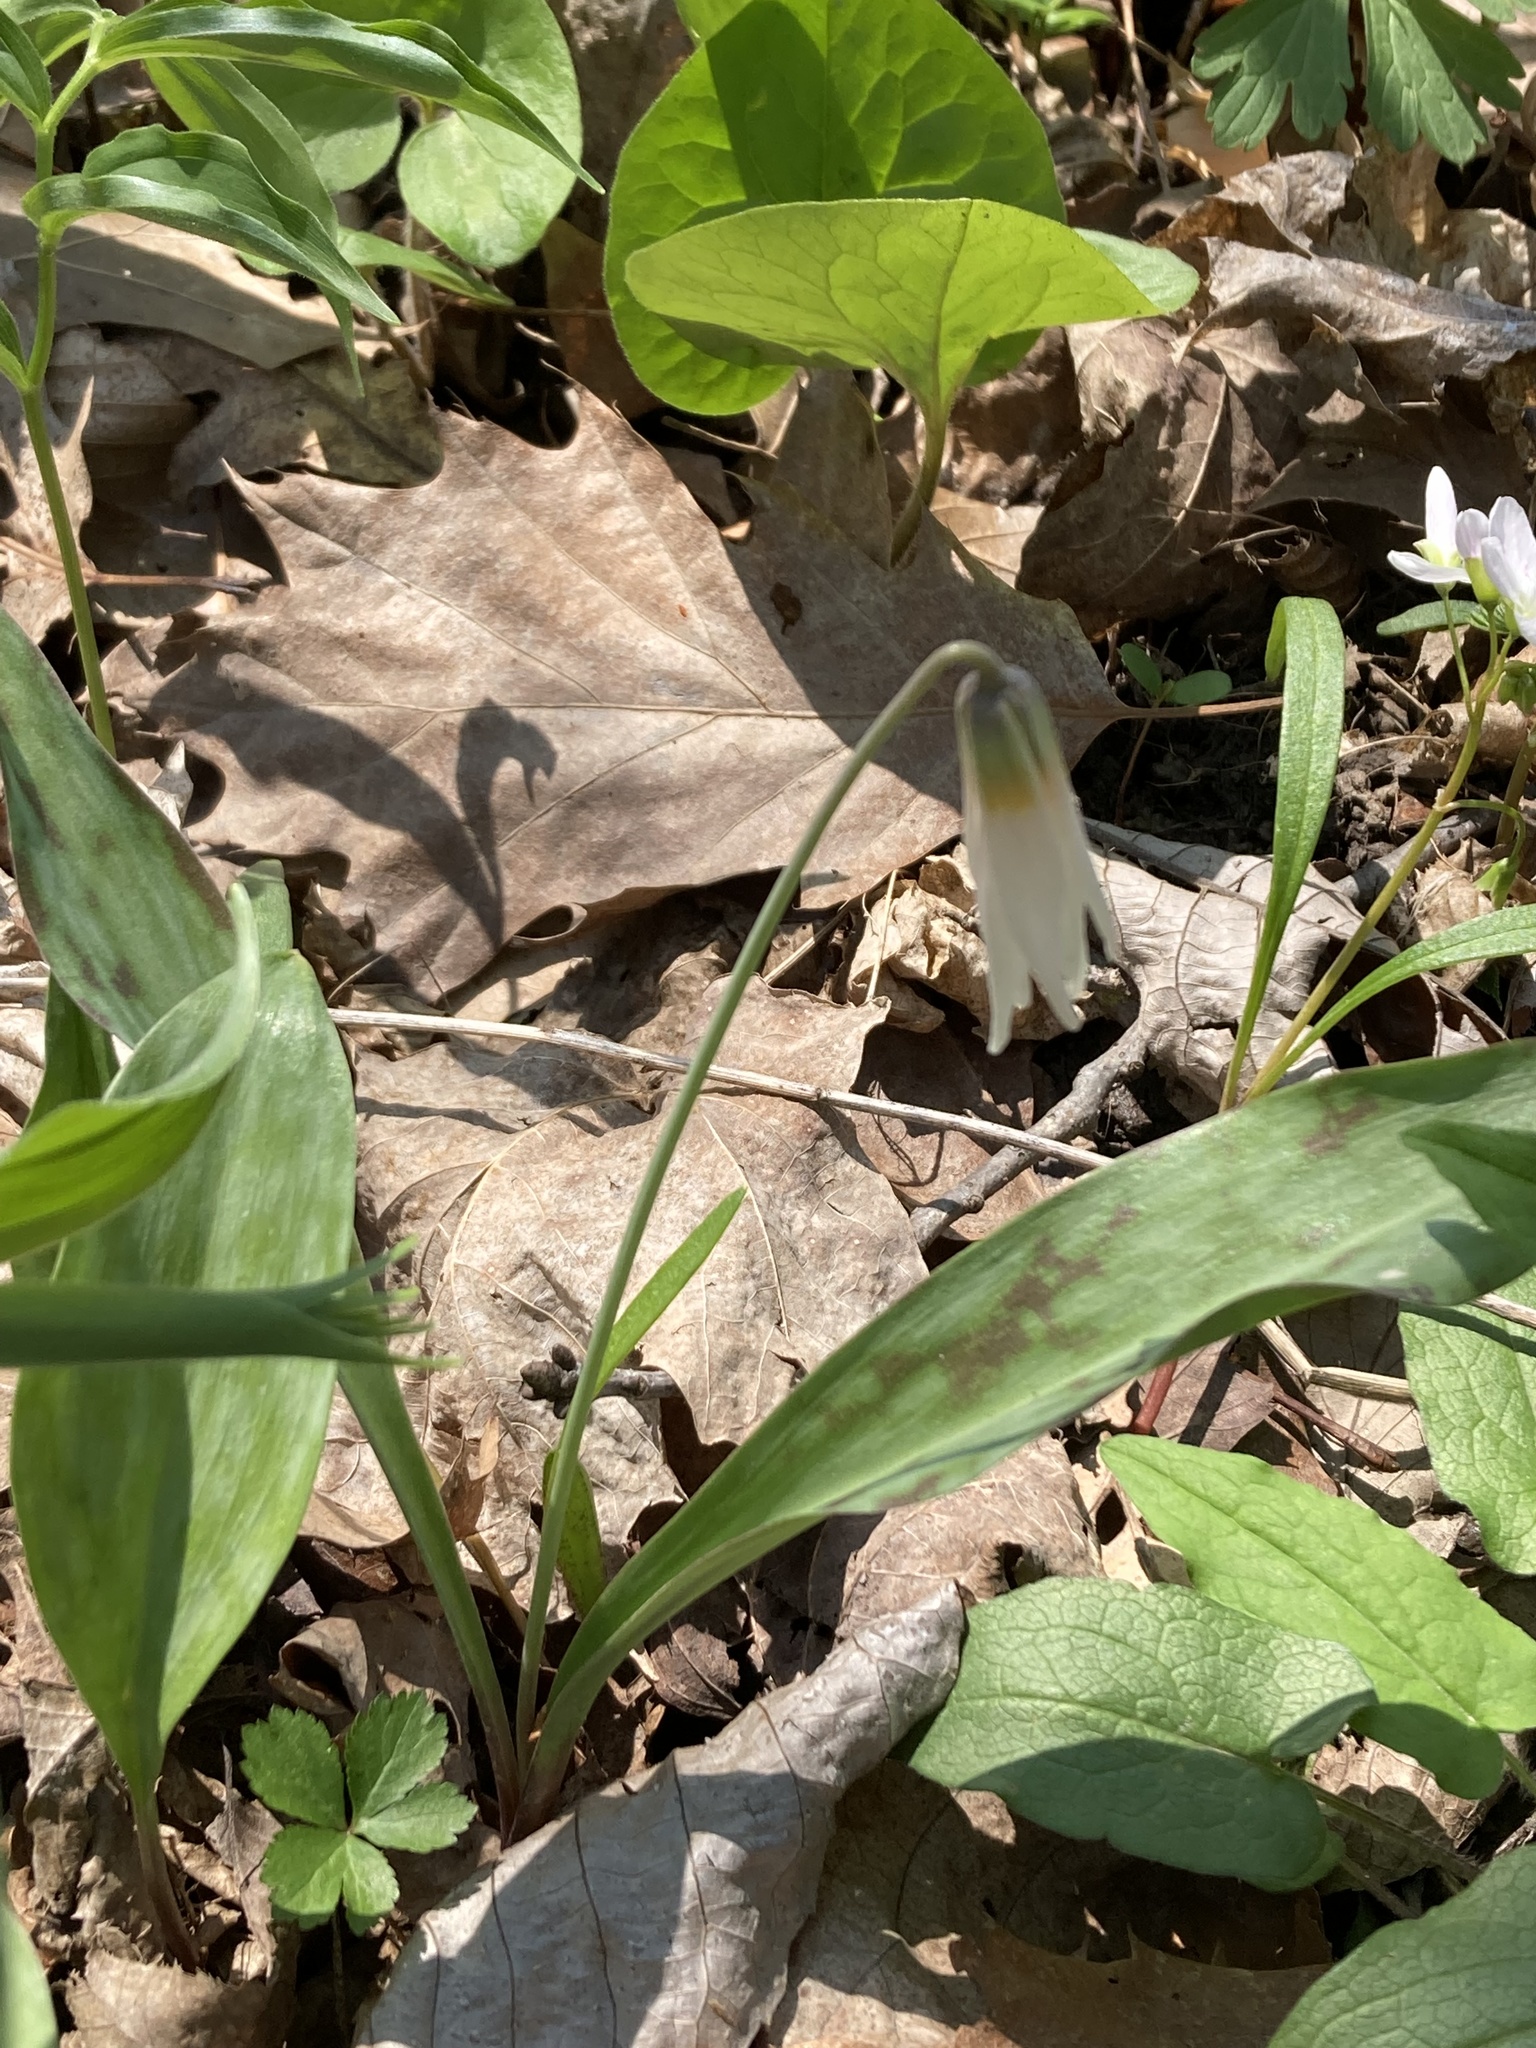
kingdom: Plantae
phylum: Tracheophyta
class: Liliopsida
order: Liliales
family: Liliaceae
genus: Erythronium
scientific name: Erythronium albidum
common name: White trout-lily
